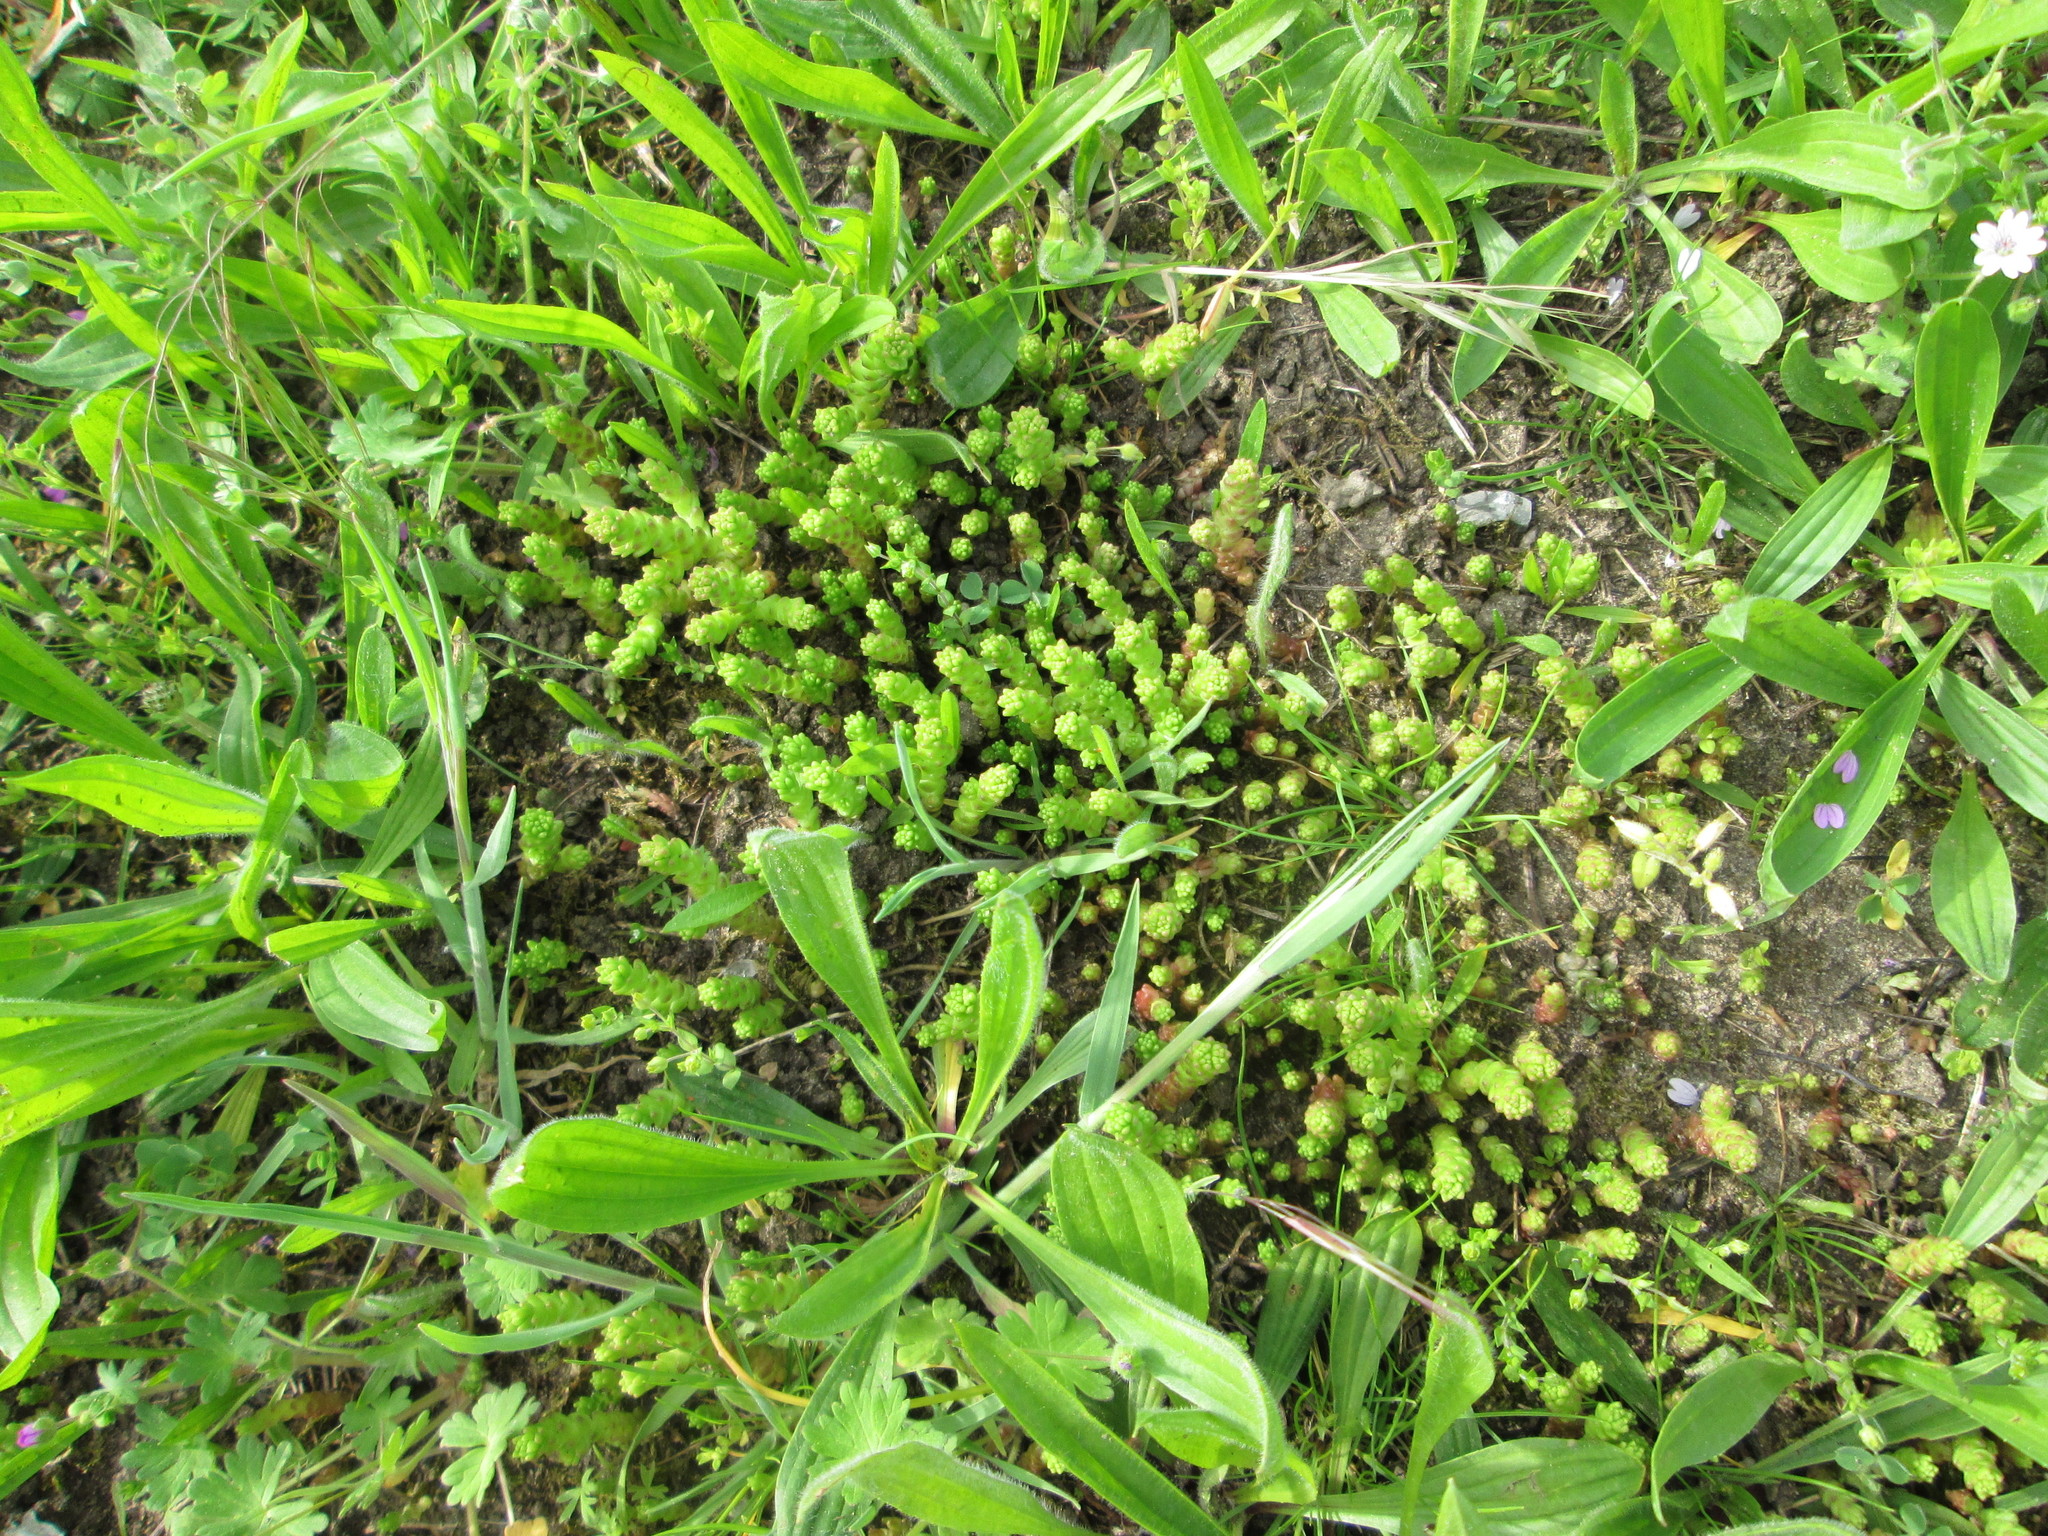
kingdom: Plantae
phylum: Tracheophyta
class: Magnoliopsida
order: Saxifragales
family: Crassulaceae
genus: Sedum
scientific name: Sedum acre
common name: Biting stonecrop
